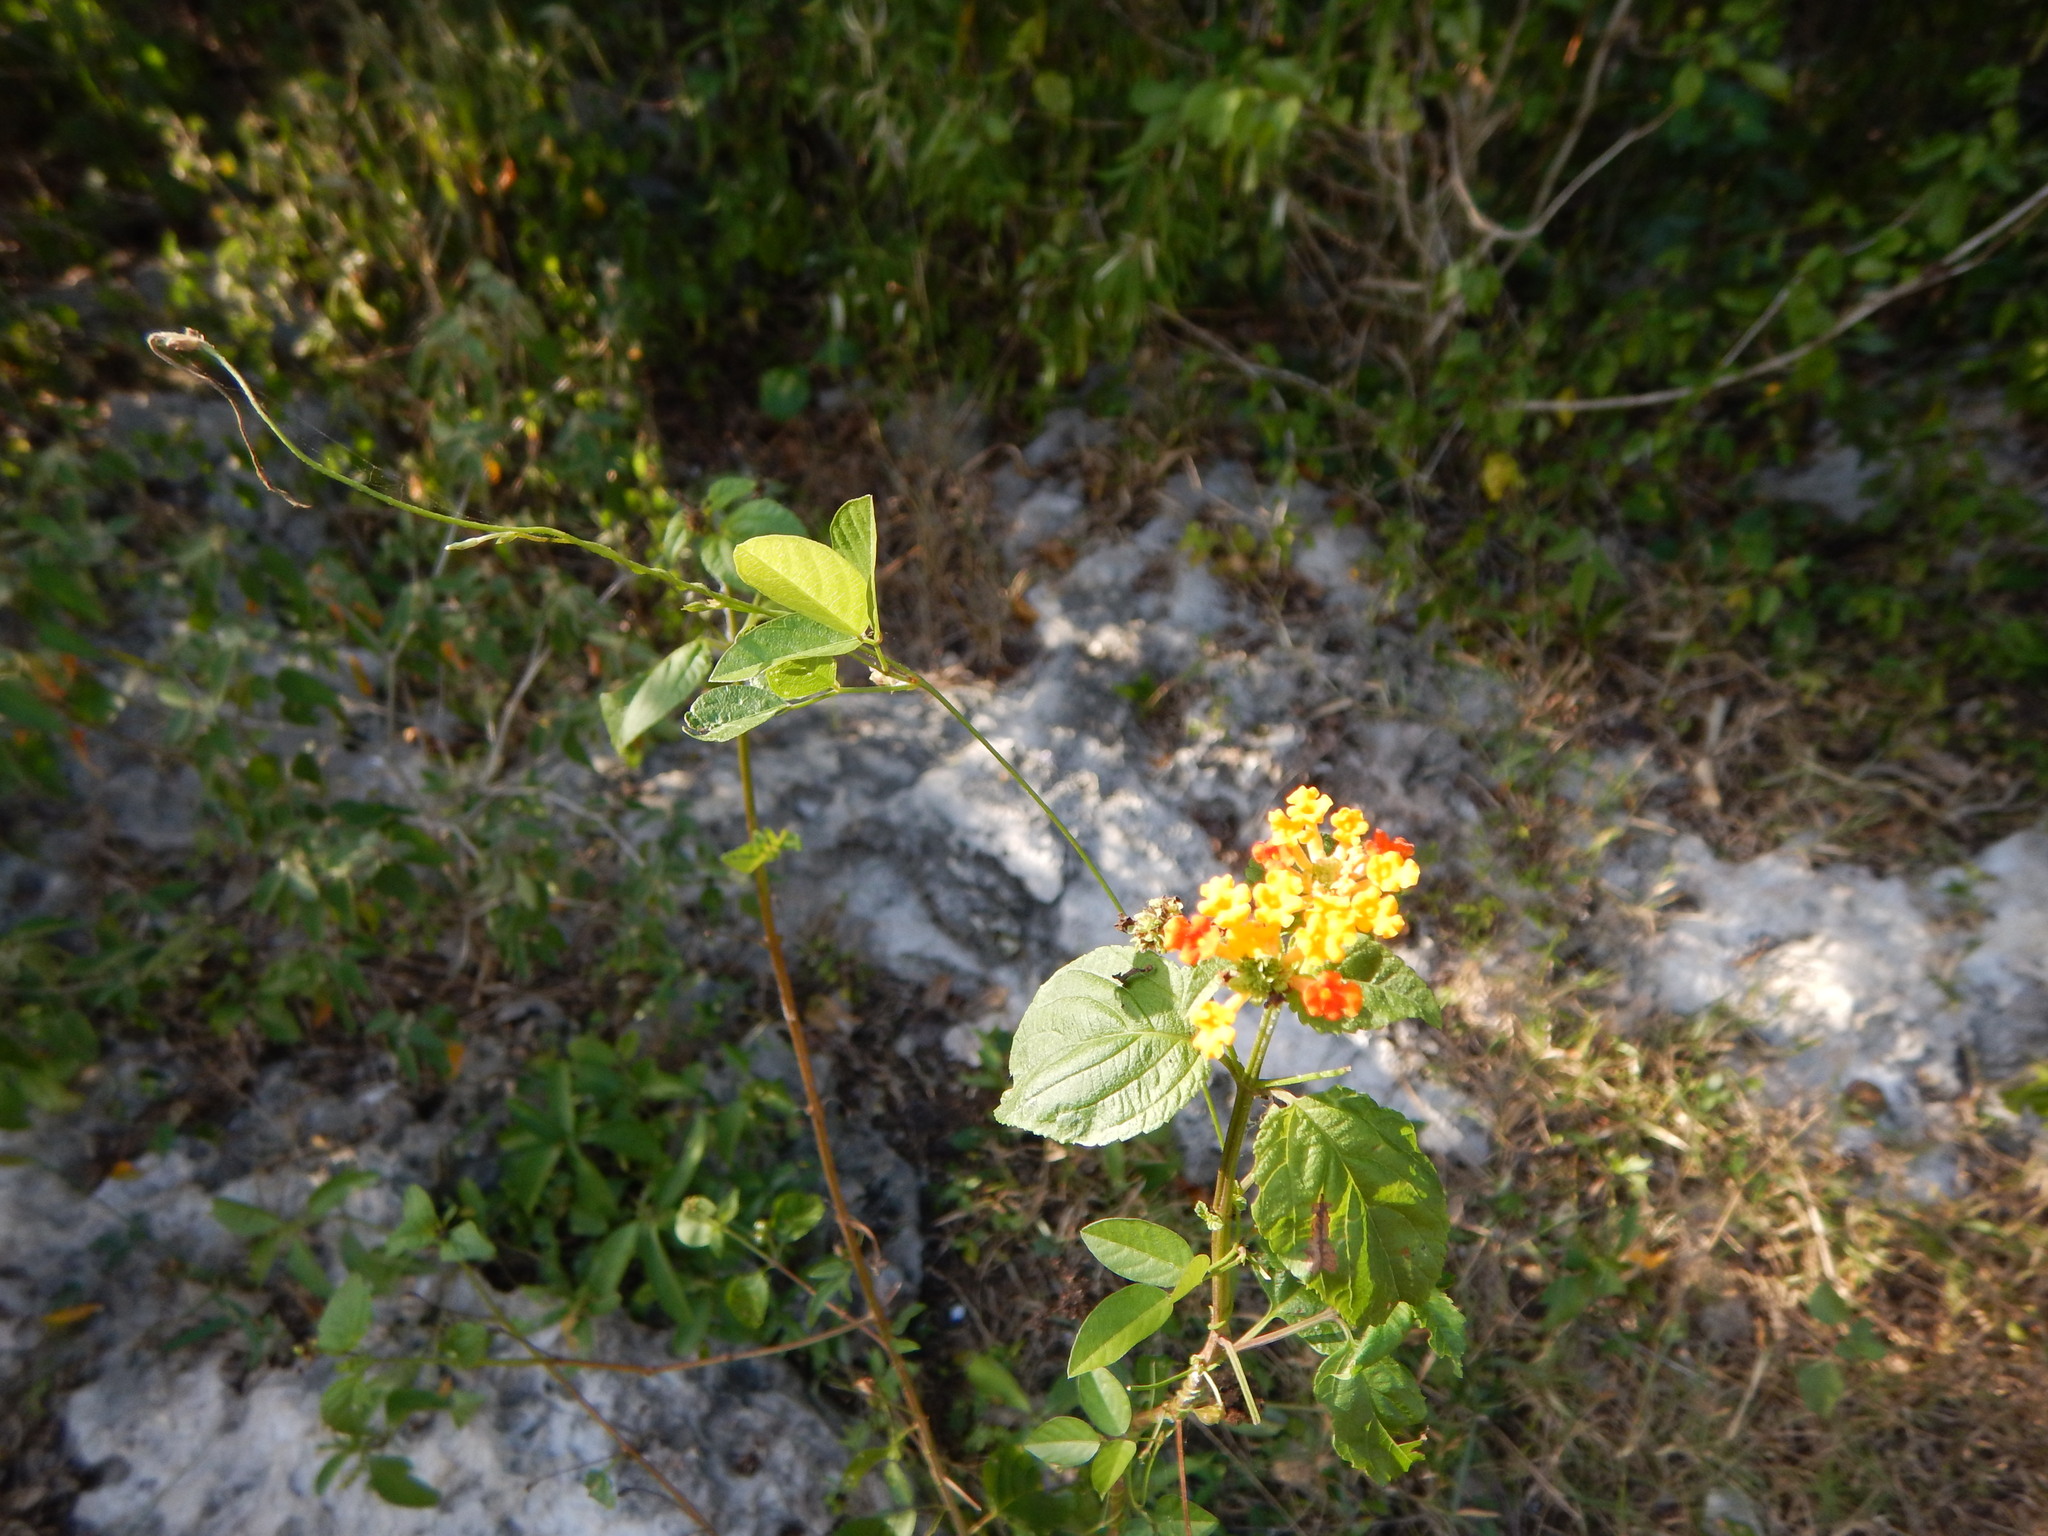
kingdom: Plantae
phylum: Tracheophyta
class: Magnoliopsida
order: Lamiales
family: Verbenaceae
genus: Lantana
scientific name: Lantana camara
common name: Lantana
